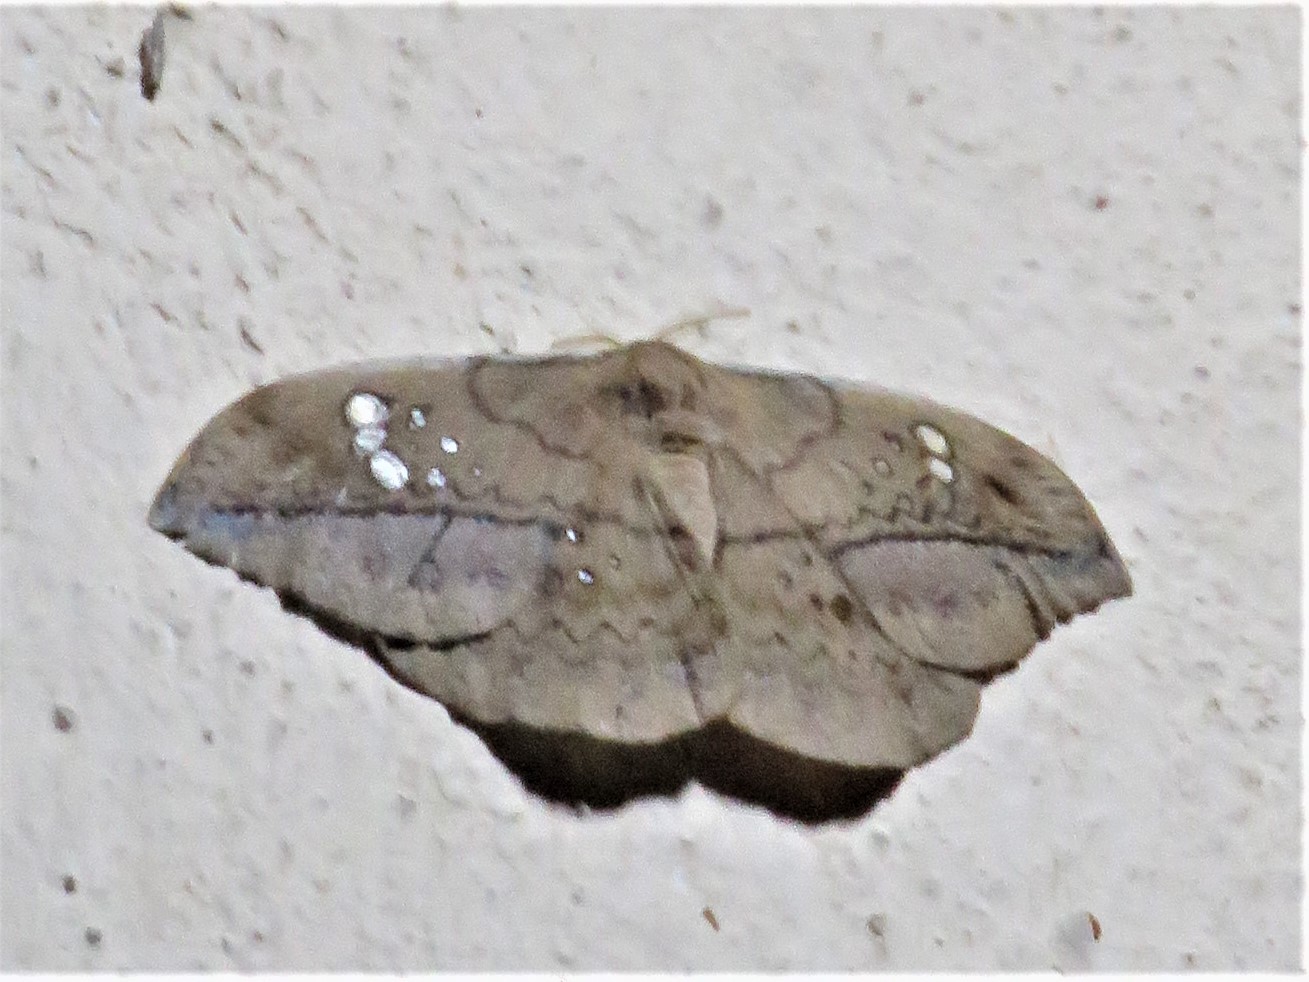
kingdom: Animalia
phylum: Arthropoda
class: Insecta
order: Lepidoptera
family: Saturniidae
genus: Copaxa
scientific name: Copaxa multifenestrata
